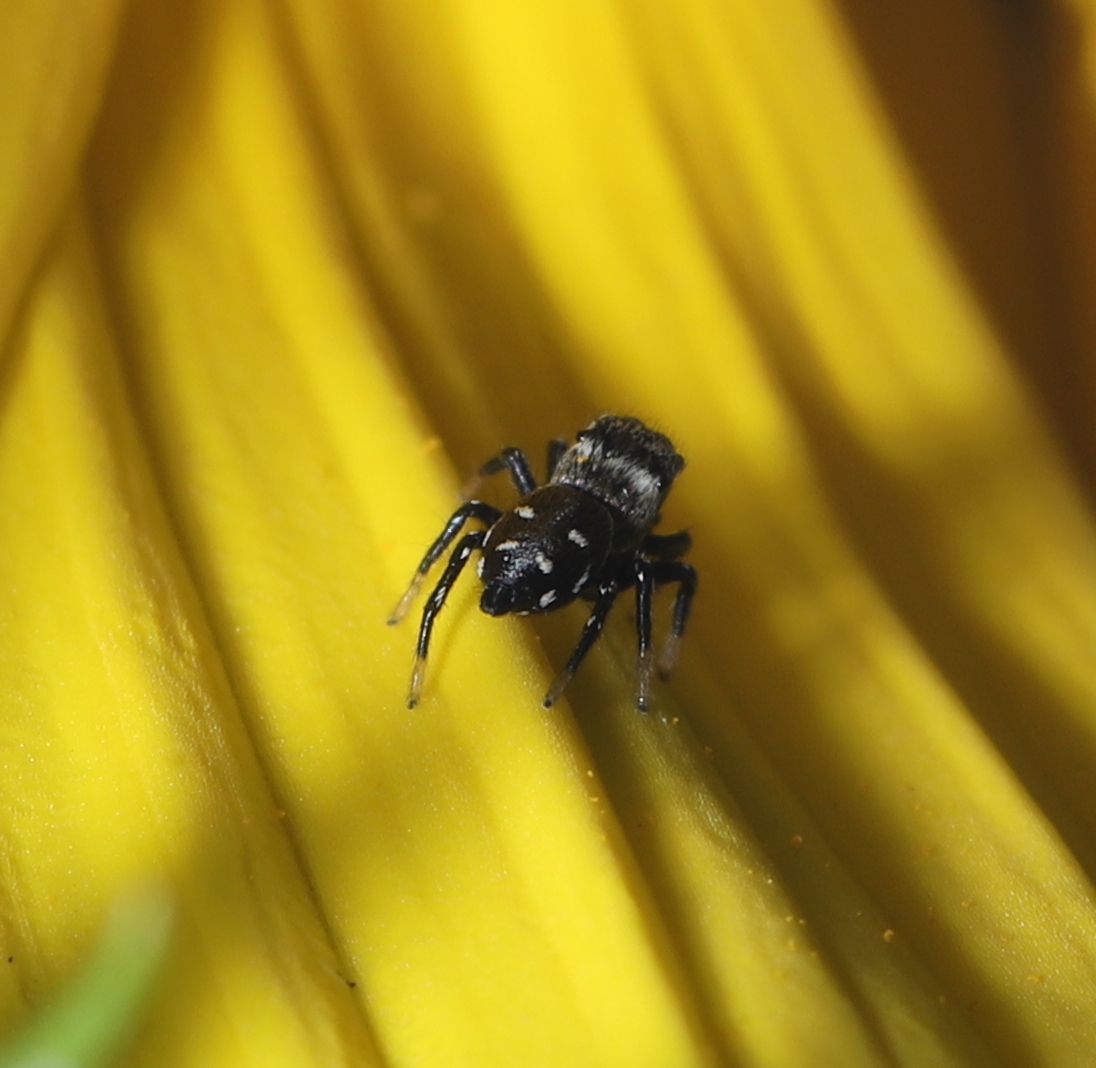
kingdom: Animalia
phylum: Arthropoda
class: Arachnida
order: Araneae
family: Salticidae
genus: Heliophanus
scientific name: Heliophanus kochii
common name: Sun jumping spider
